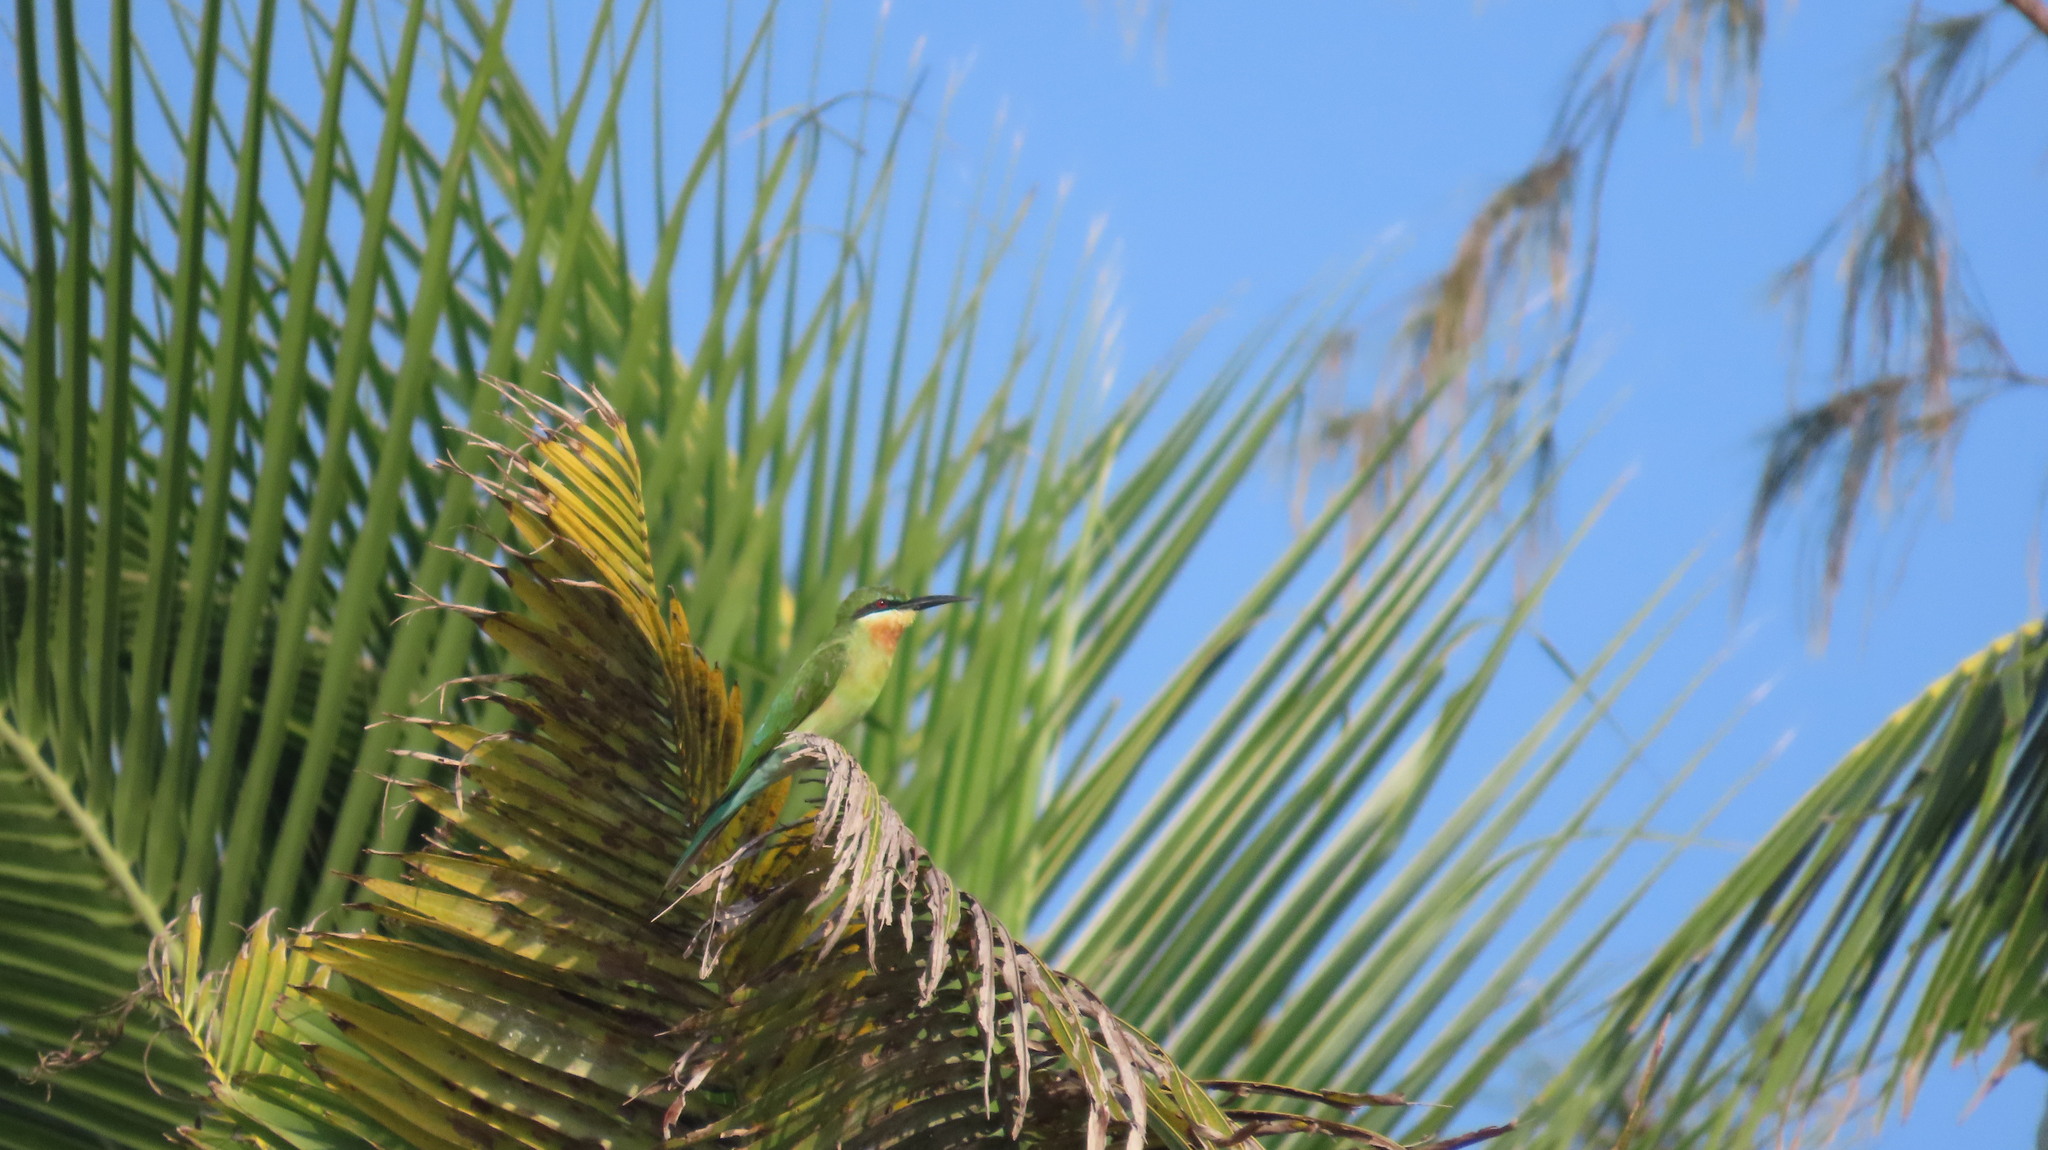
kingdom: Animalia
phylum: Chordata
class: Aves
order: Coraciiformes
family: Meropidae
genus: Merops
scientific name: Merops philippinus
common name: Blue-tailed bee-eater
